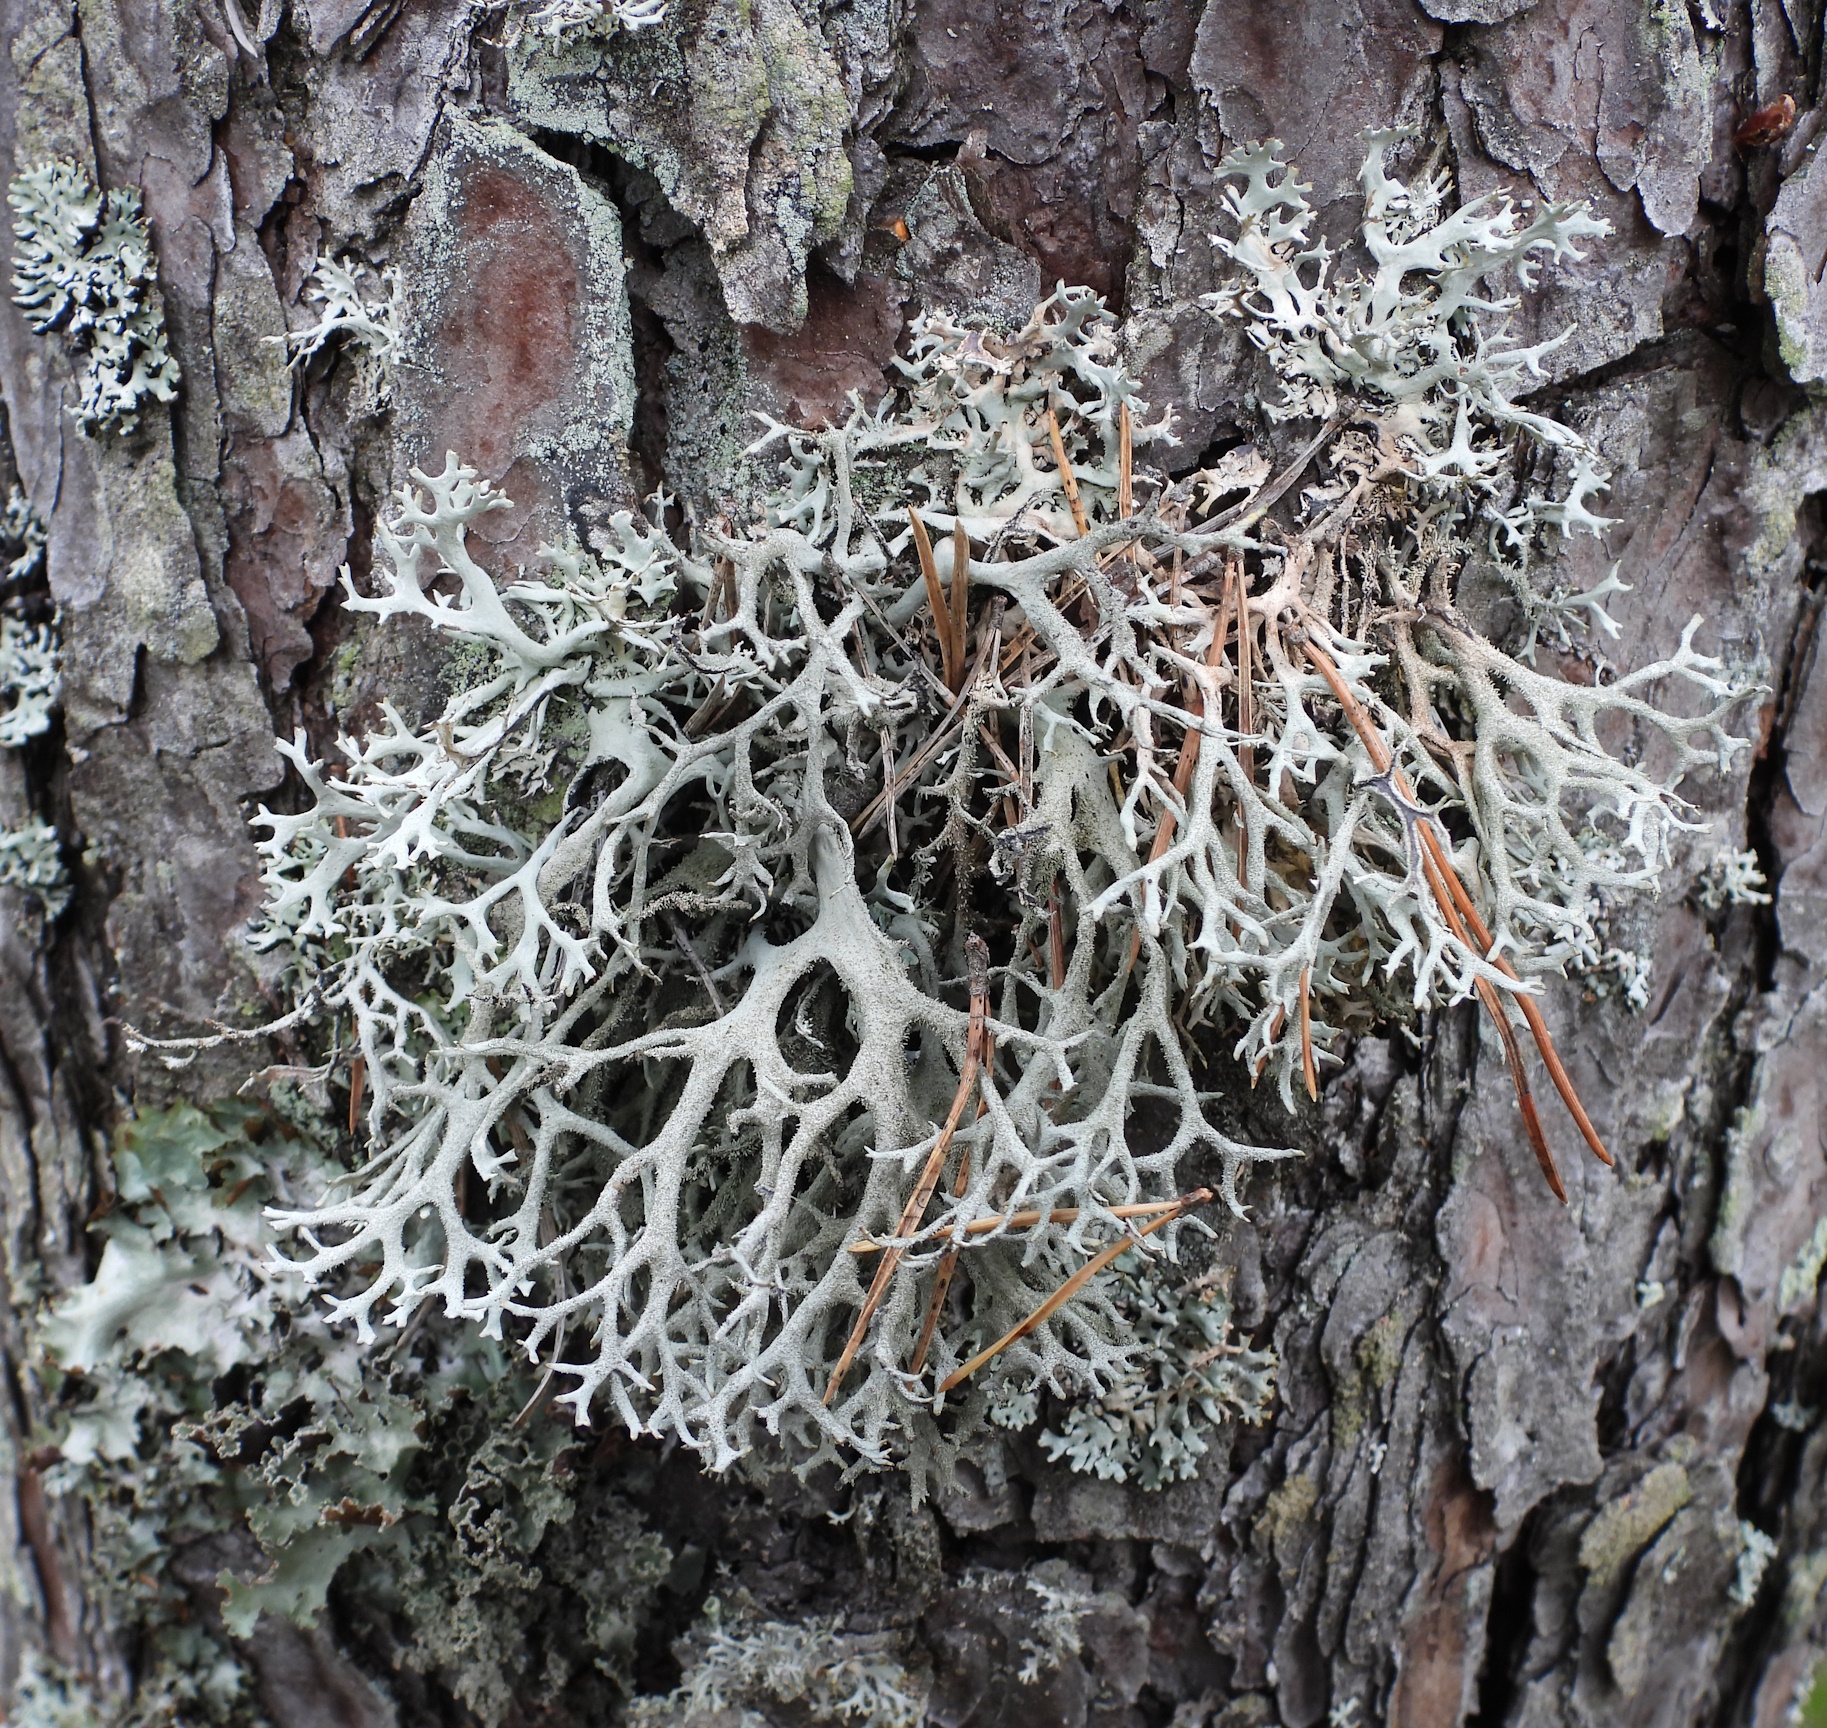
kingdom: Fungi
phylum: Ascomycota
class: Lecanoromycetes
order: Lecanorales
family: Parmeliaceae
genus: Pseudevernia
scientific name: Pseudevernia furfuracea
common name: Tree moss
